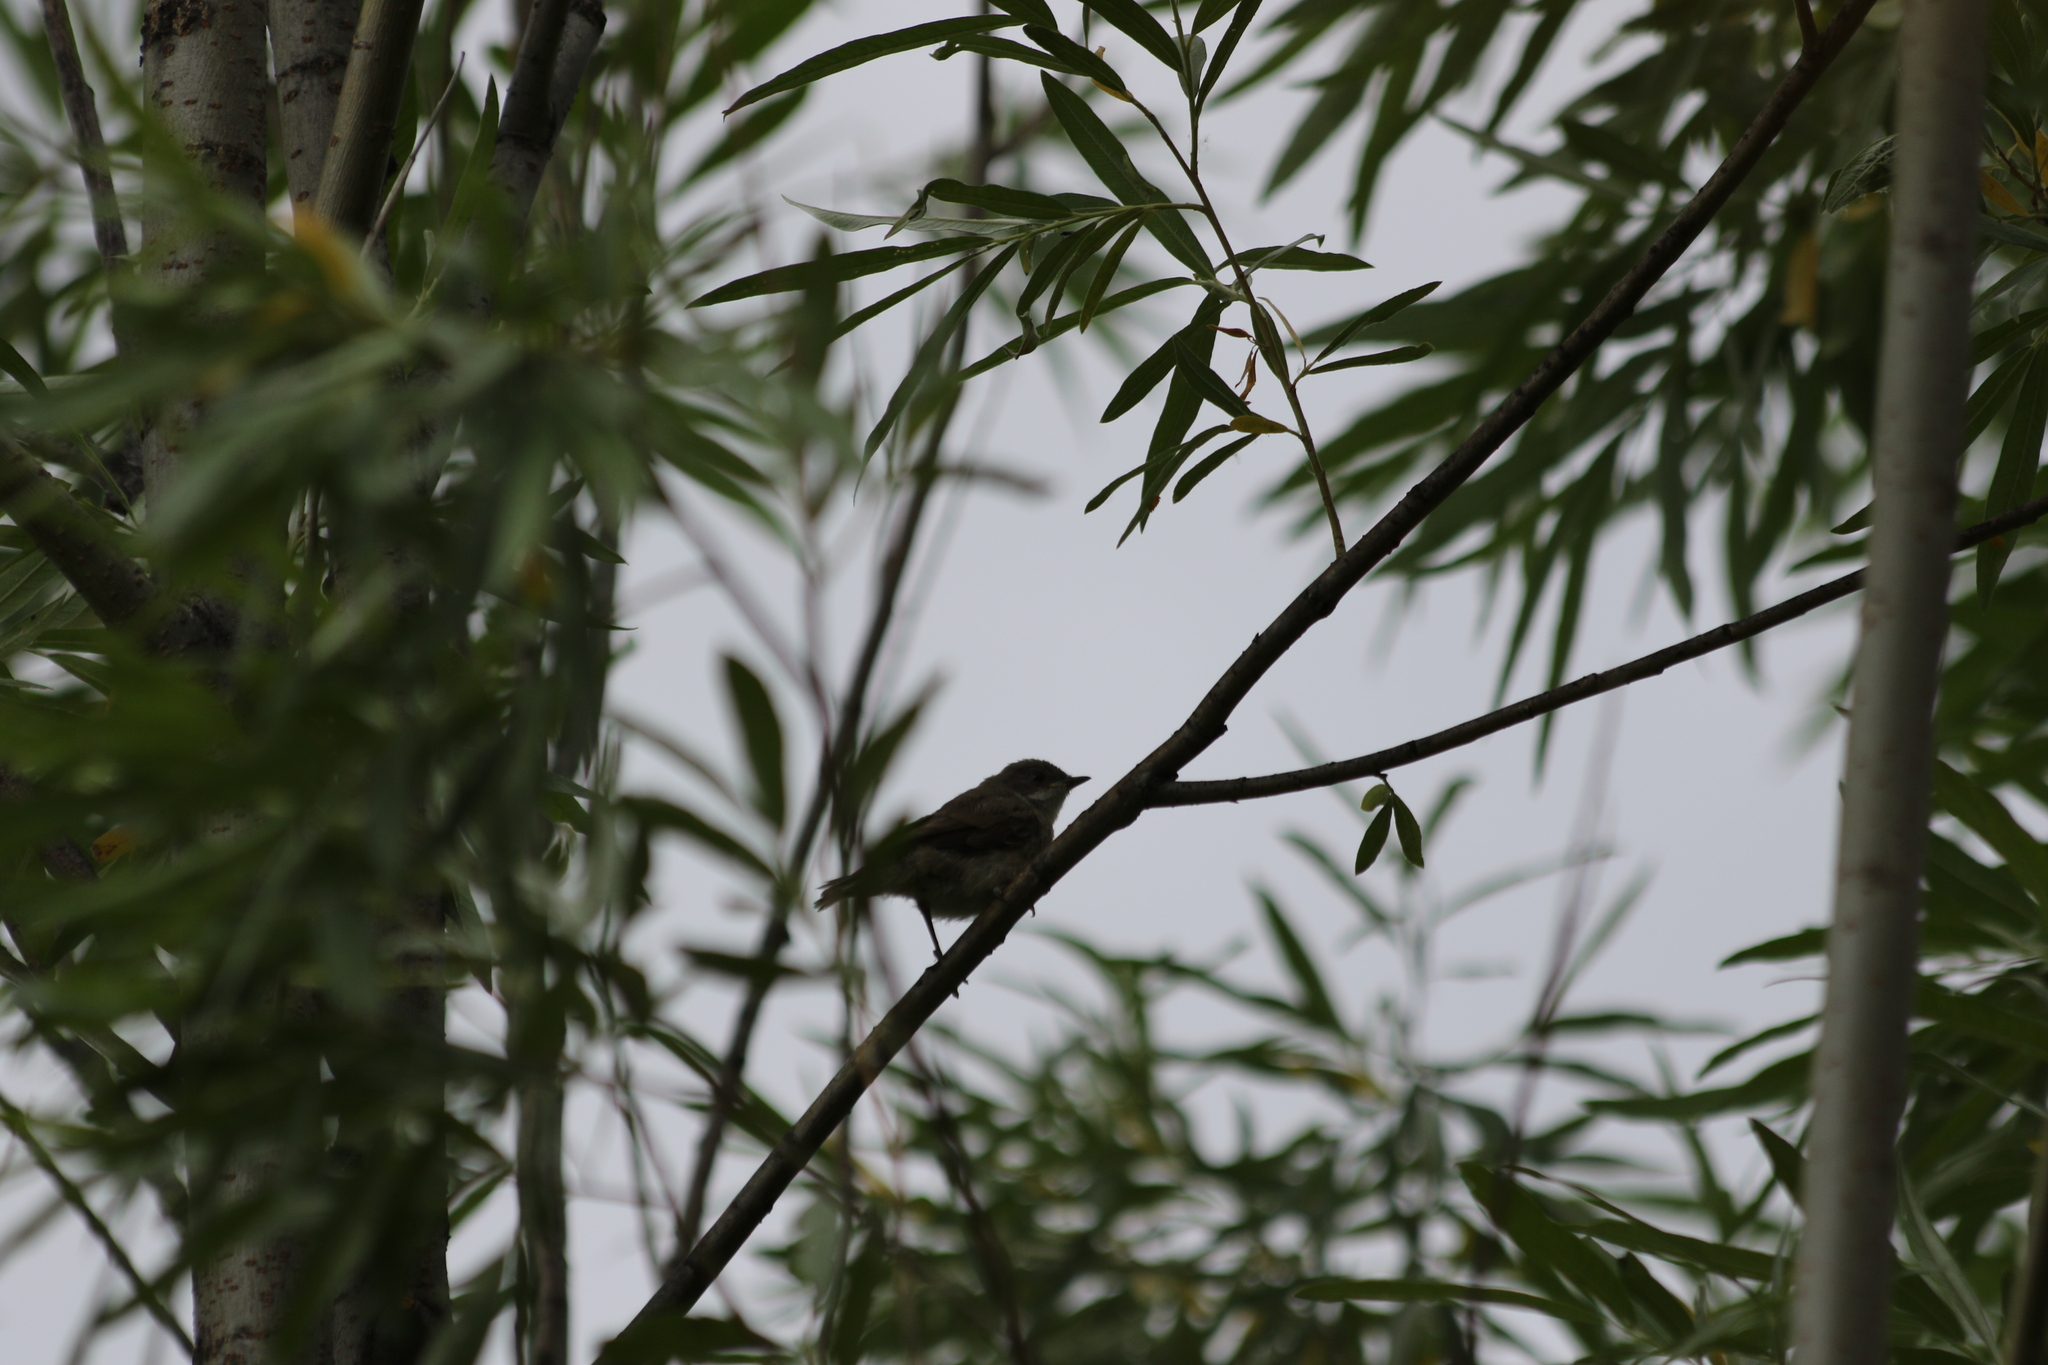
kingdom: Animalia
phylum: Chordata
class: Aves
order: Passeriformes
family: Sylviidae
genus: Sylvia
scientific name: Sylvia curruca
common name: Lesser whitethroat
